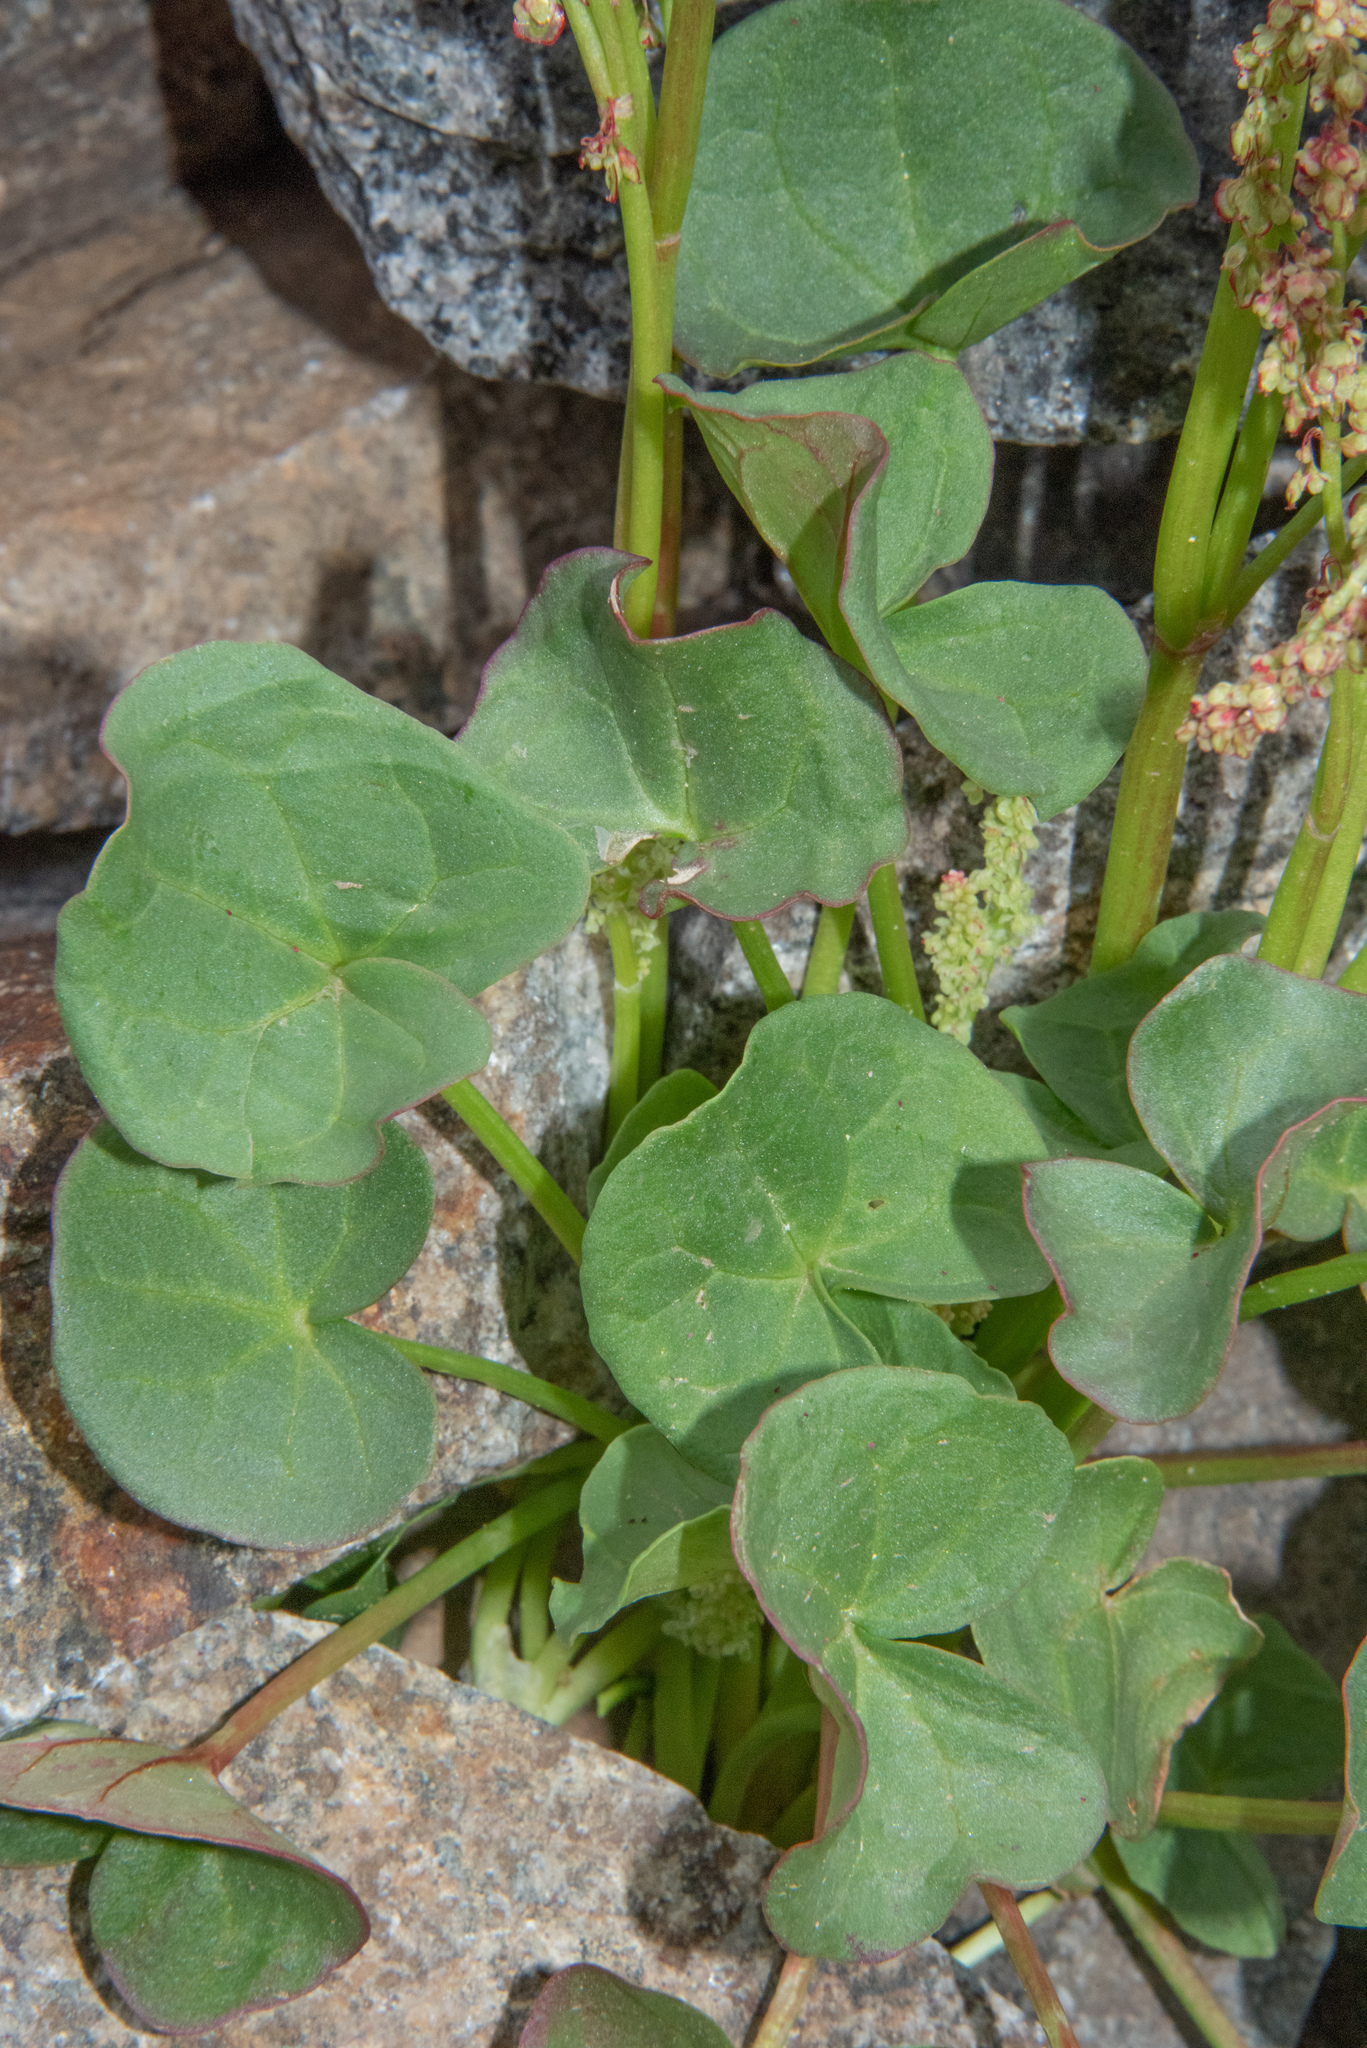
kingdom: Plantae
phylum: Tracheophyta
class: Magnoliopsida
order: Caryophyllales
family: Polygonaceae
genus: Oxyria
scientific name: Oxyria digyna
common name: Alpine mountain-sorrel
